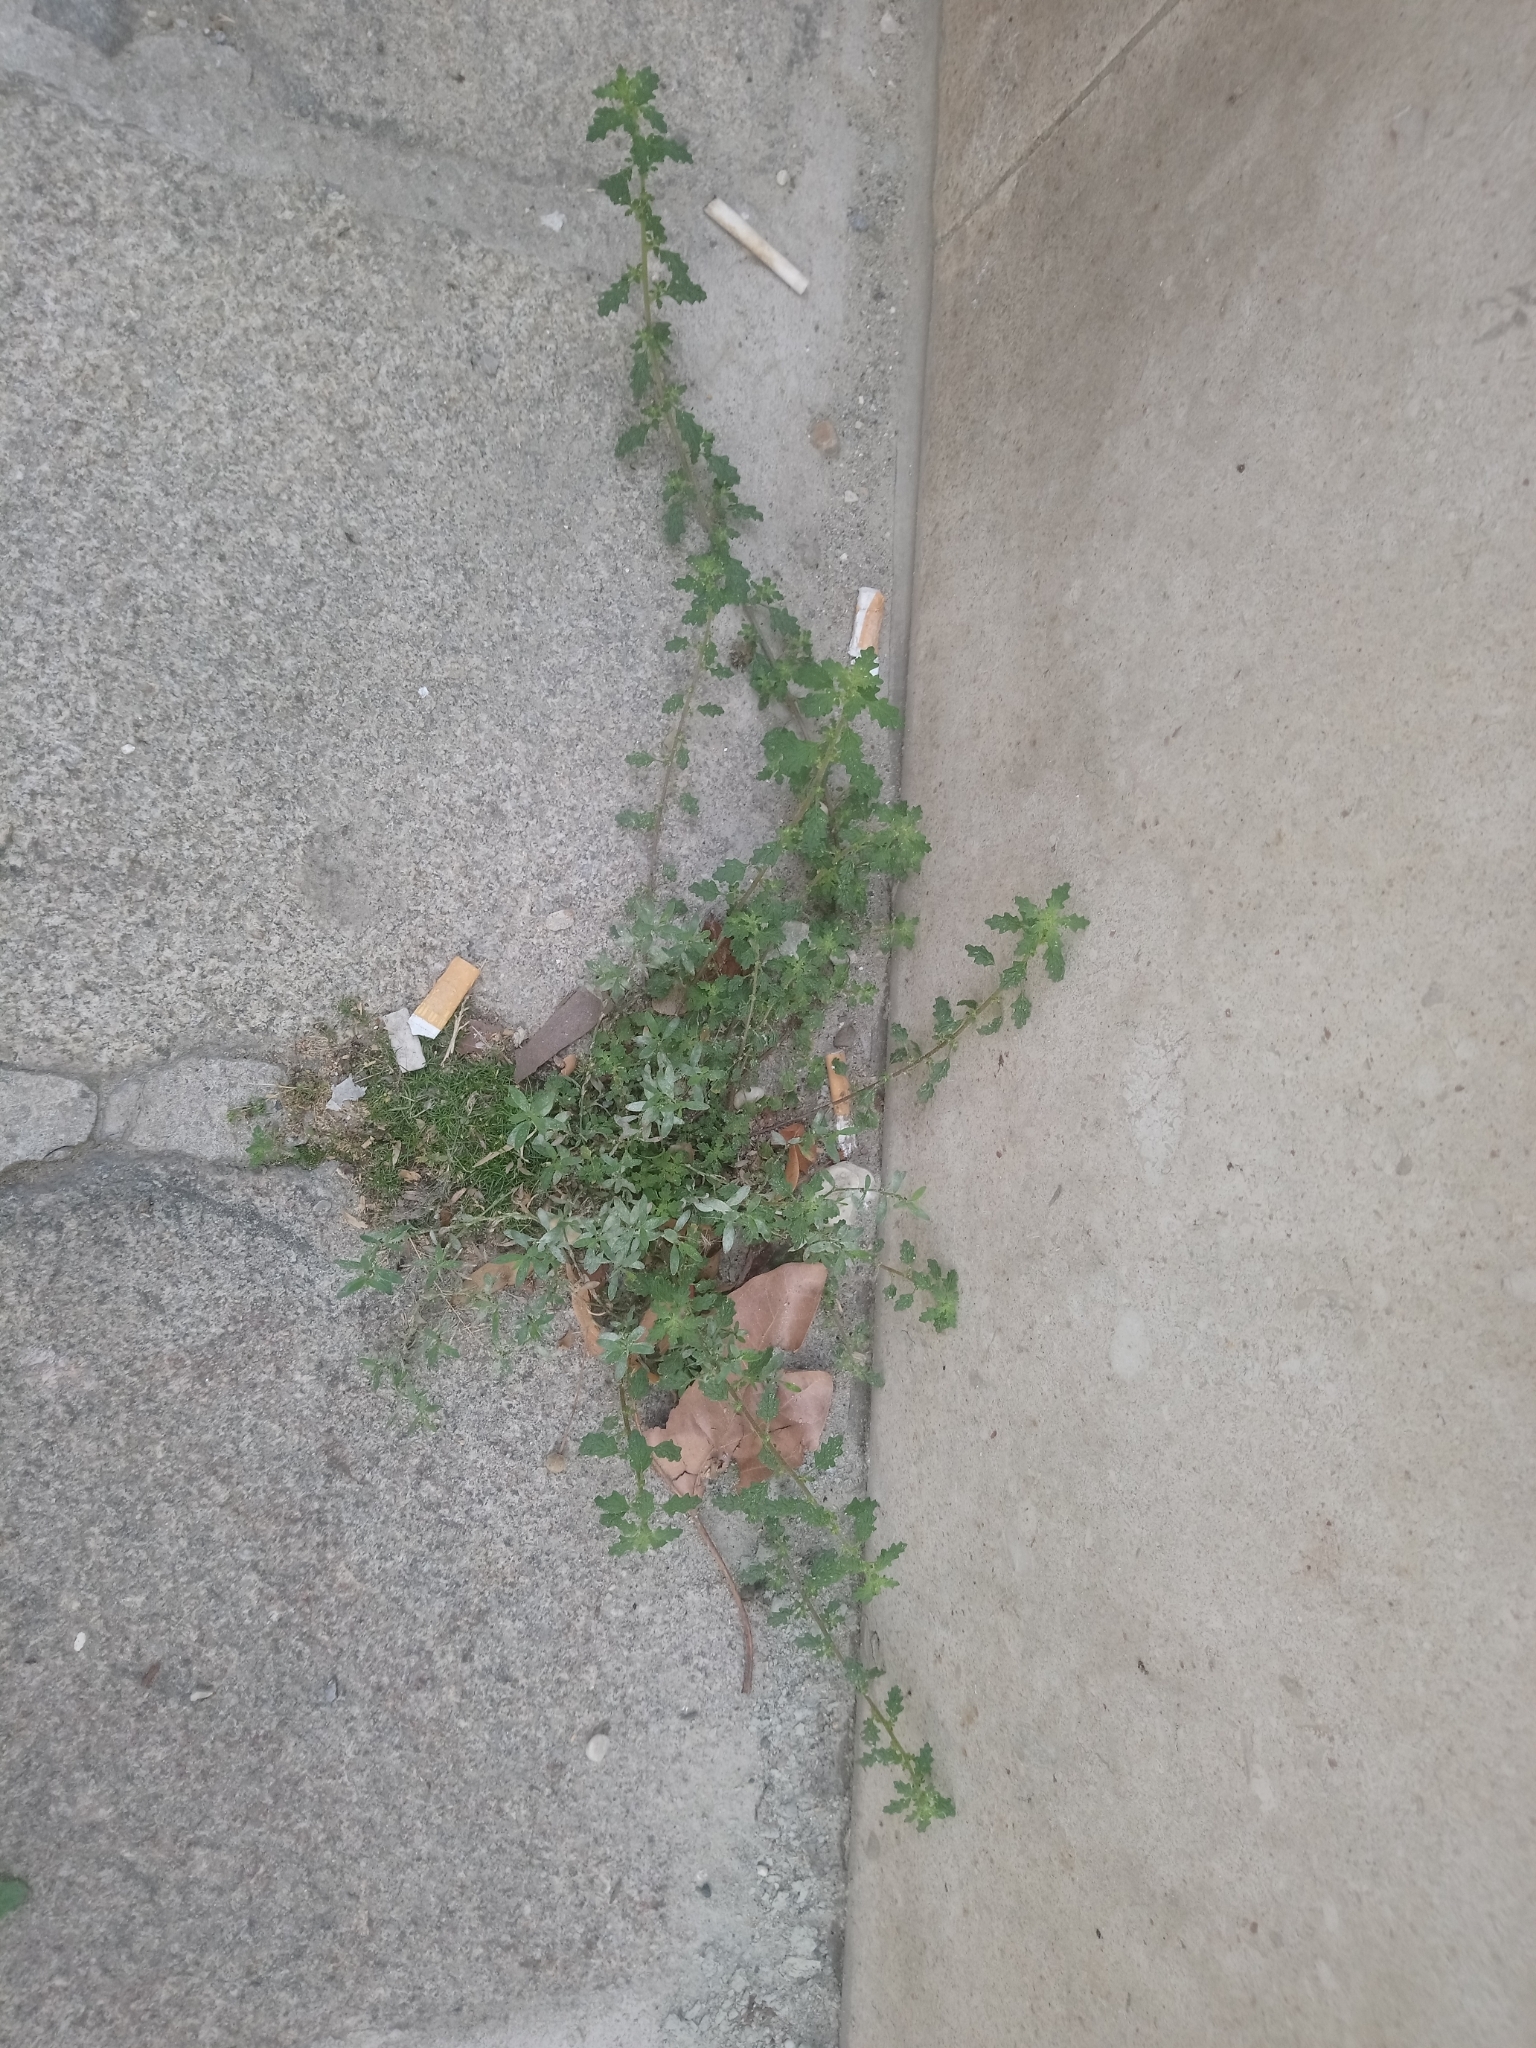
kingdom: Plantae
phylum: Tracheophyta
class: Magnoliopsida
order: Caryophyllales
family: Amaranthaceae
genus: Dysphania
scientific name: Dysphania pumilio
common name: Clammy goosefoot
